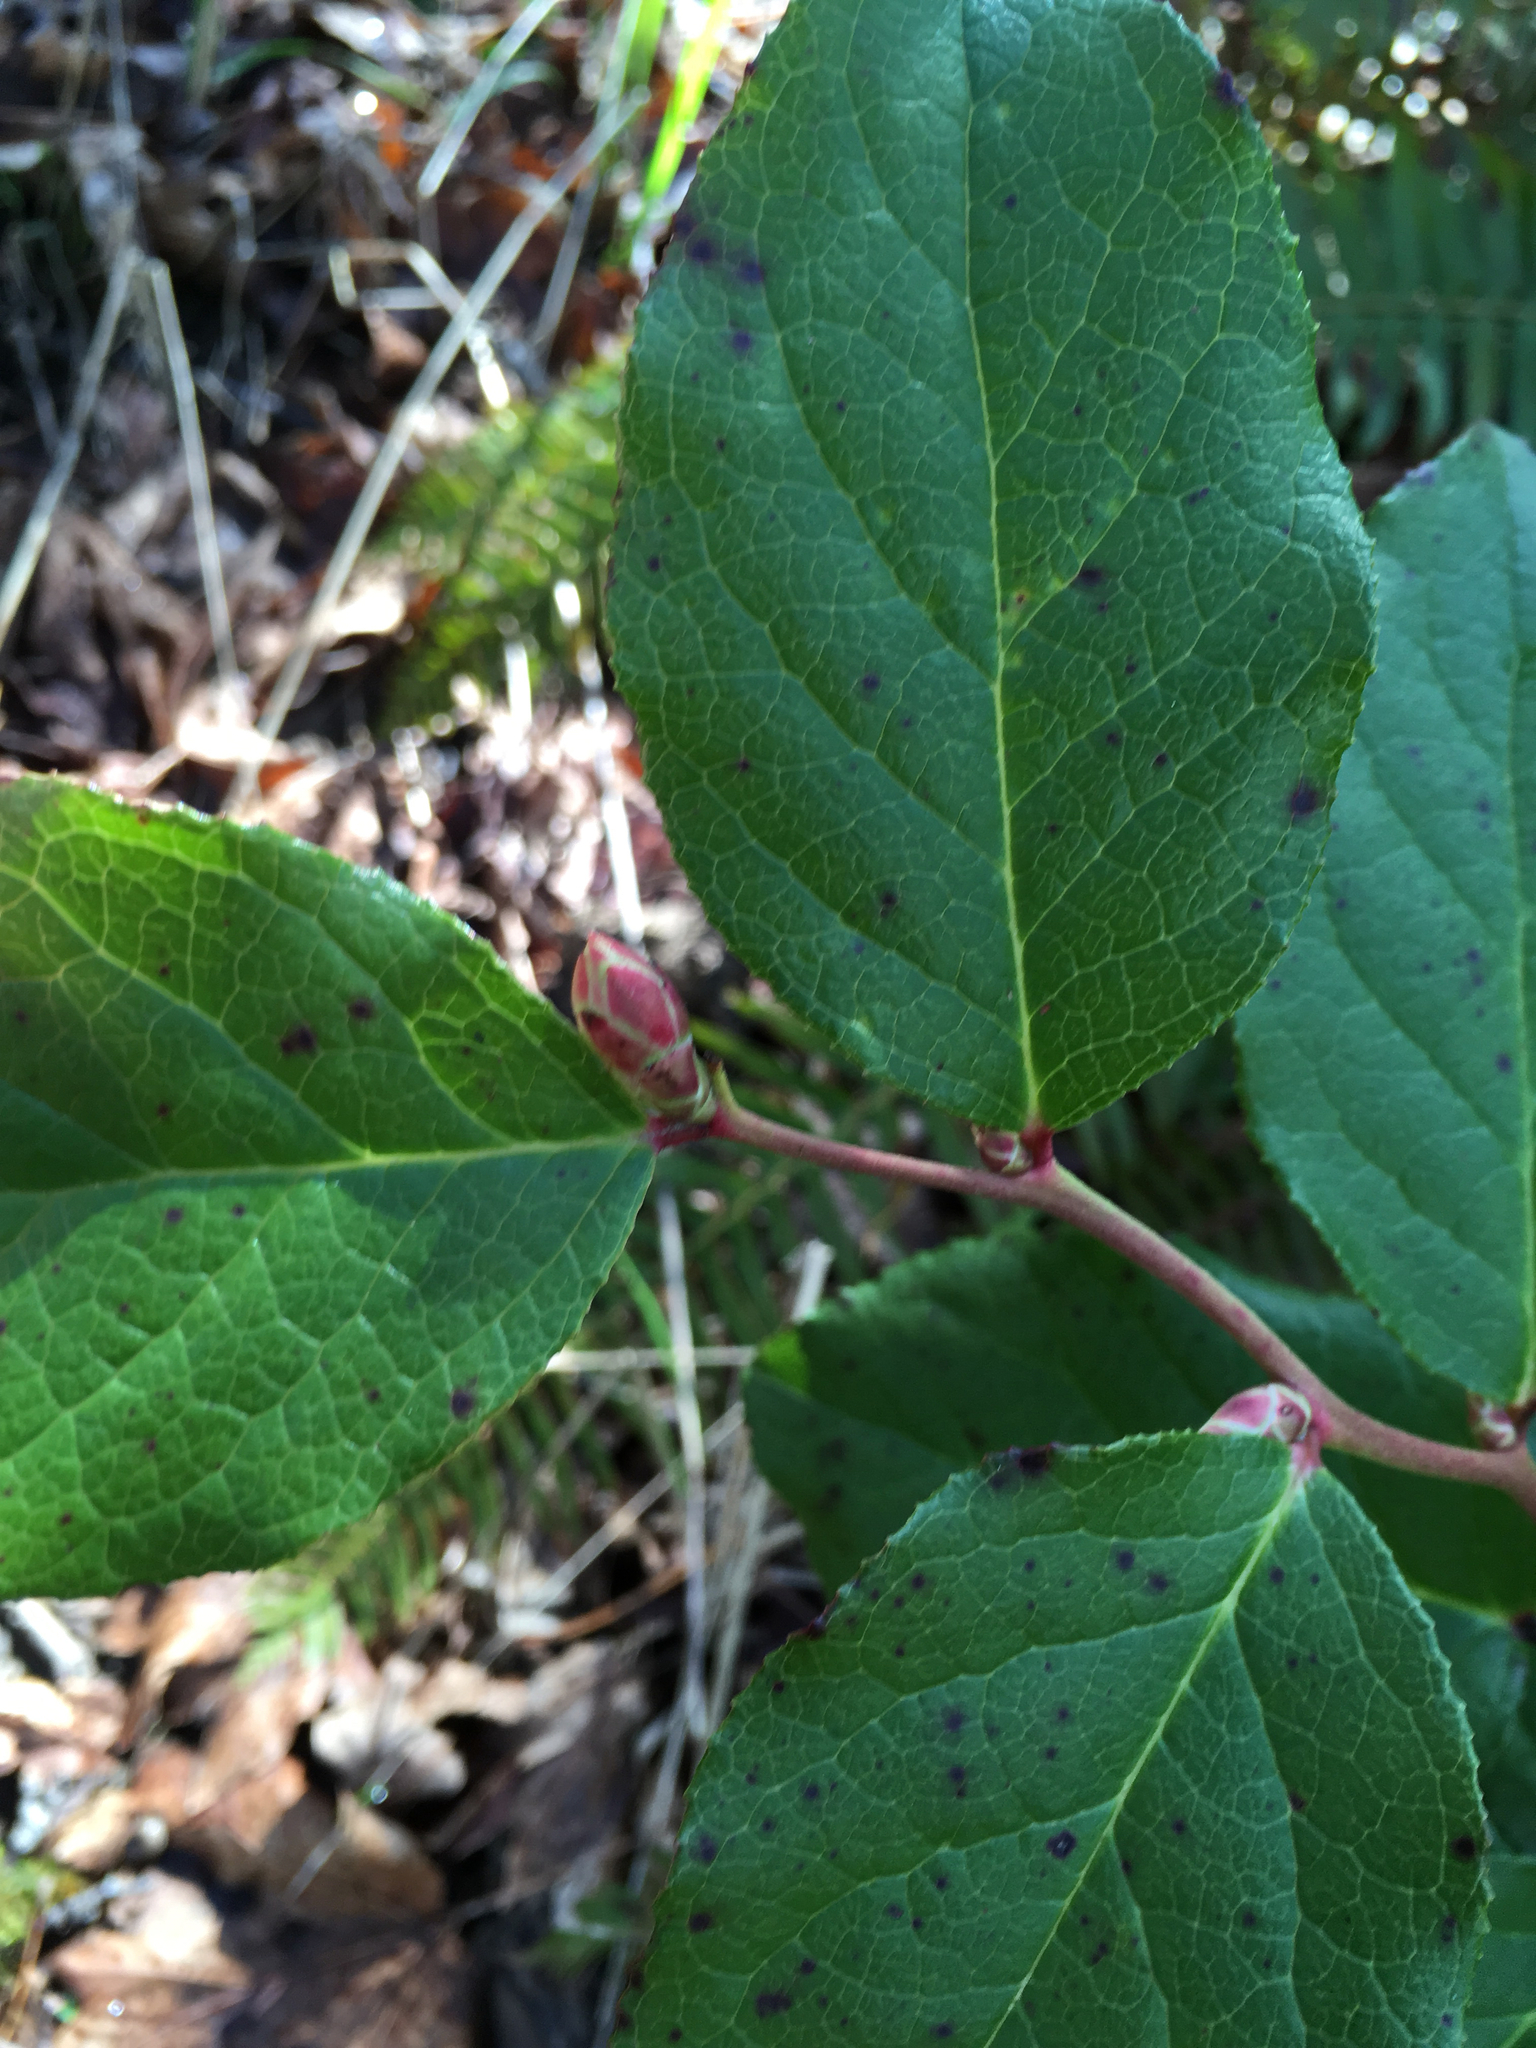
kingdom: Plantae
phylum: Tracheophyta
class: Magnoliopsida
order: Ericales
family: Ericaceae
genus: Gaultheria
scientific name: Gaultheria shallon
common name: Shallon
